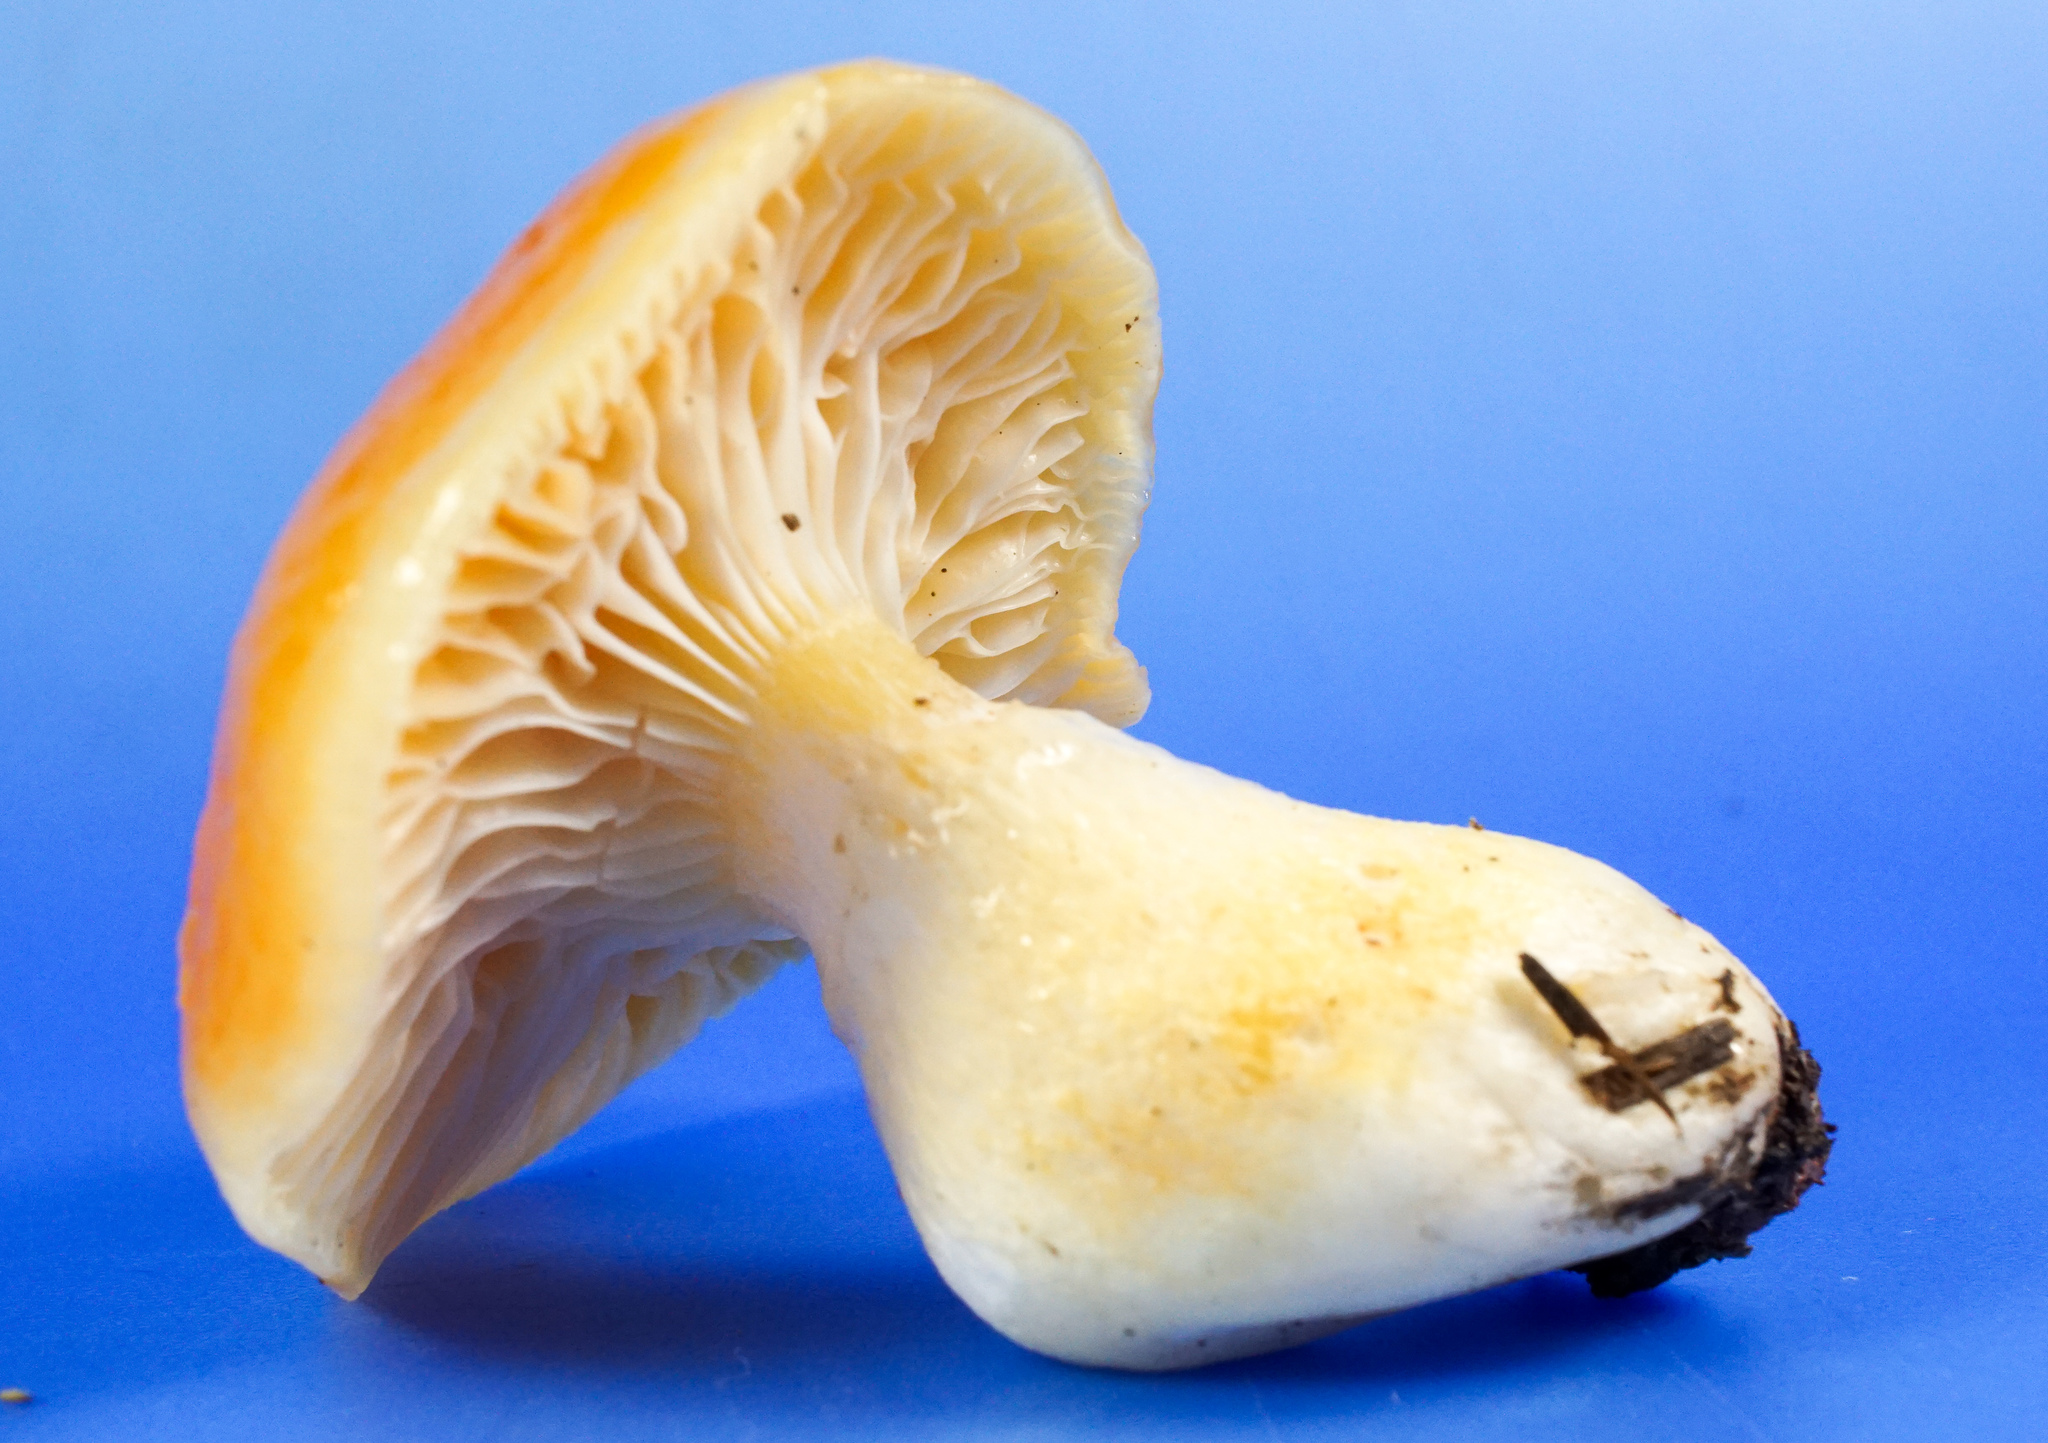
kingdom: Fungi
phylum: Basidiomycota
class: Agaricomycetes
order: Agaricales
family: Hygrophoraceae
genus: Hygrophorus
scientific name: Hygrophorus speciosus
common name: Splendid woodwax
